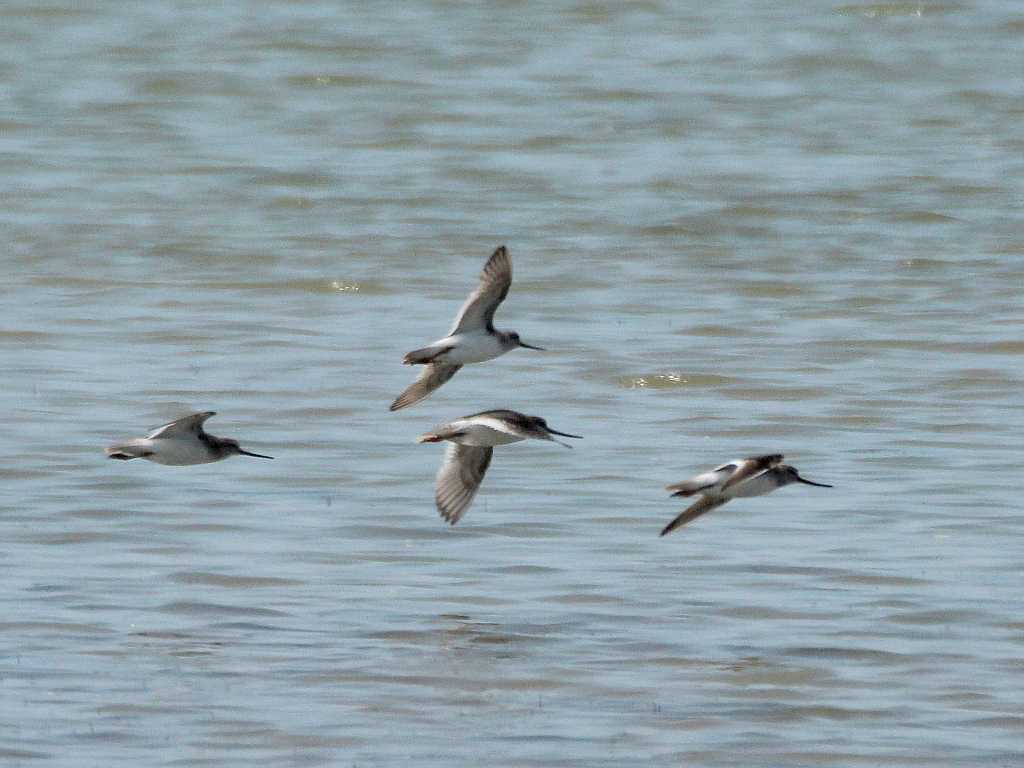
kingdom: Animalia
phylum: Chordata
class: Aves
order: Charadriiformes
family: Scolopacidae
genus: Xenus
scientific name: Xenus cinereus
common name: Terek sandpiper
